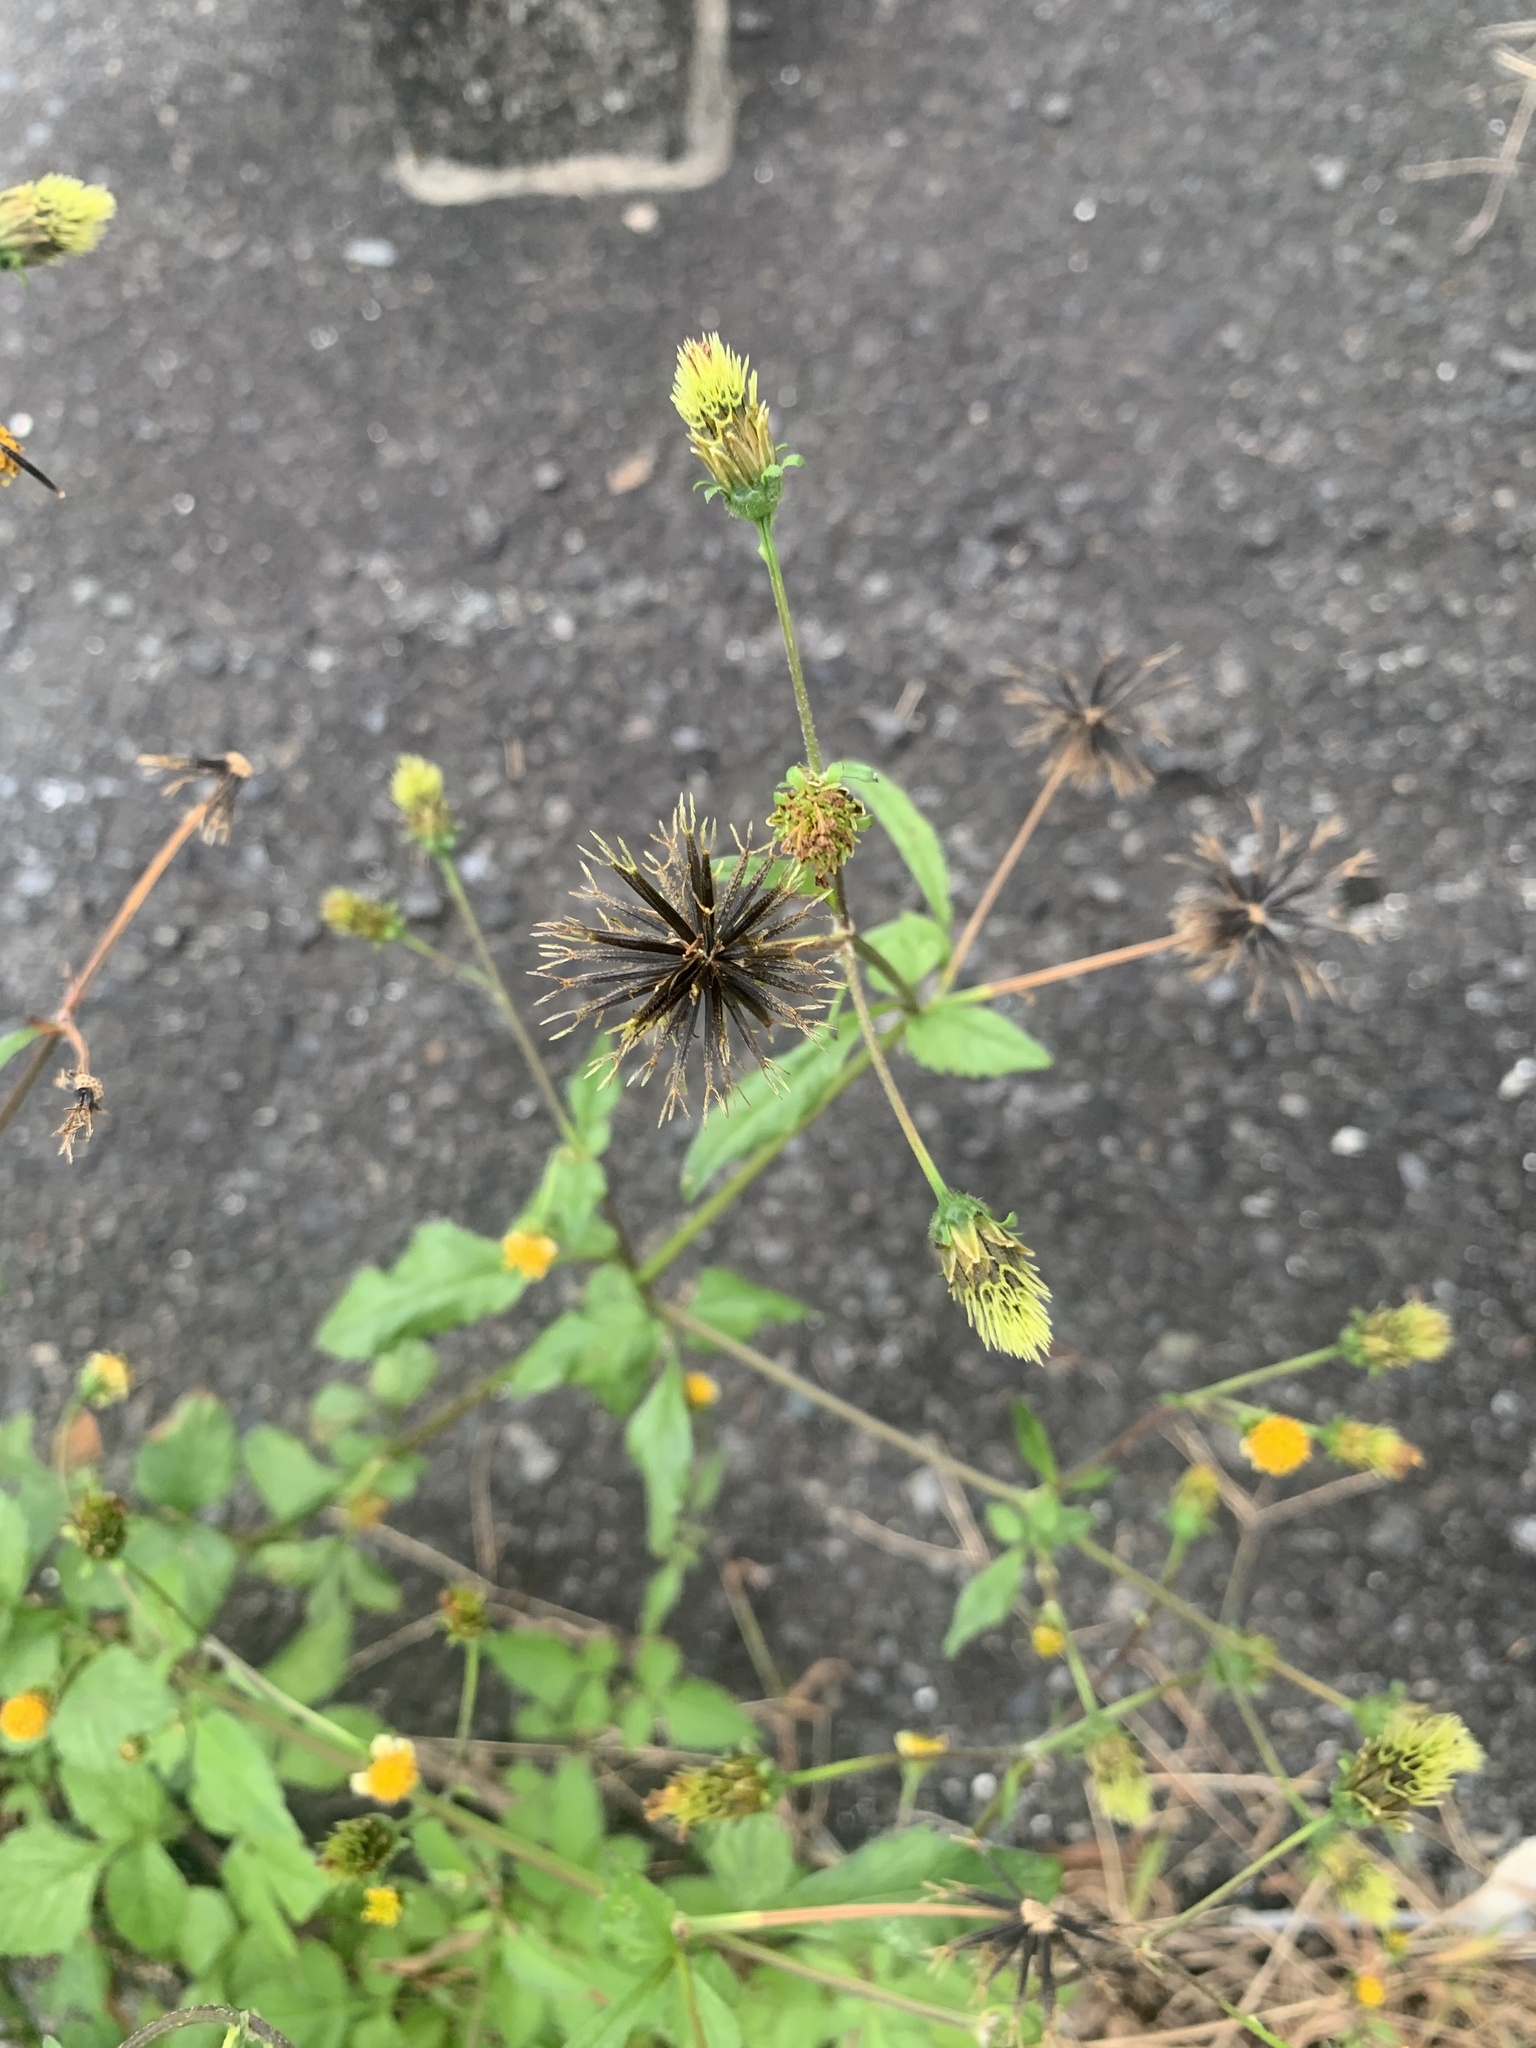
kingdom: Plantae
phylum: Tracheophyta
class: Magnoliopsida
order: Asterales
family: Asteraceae
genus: Bidens
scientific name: Bidens pilosa
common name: Black-jack
